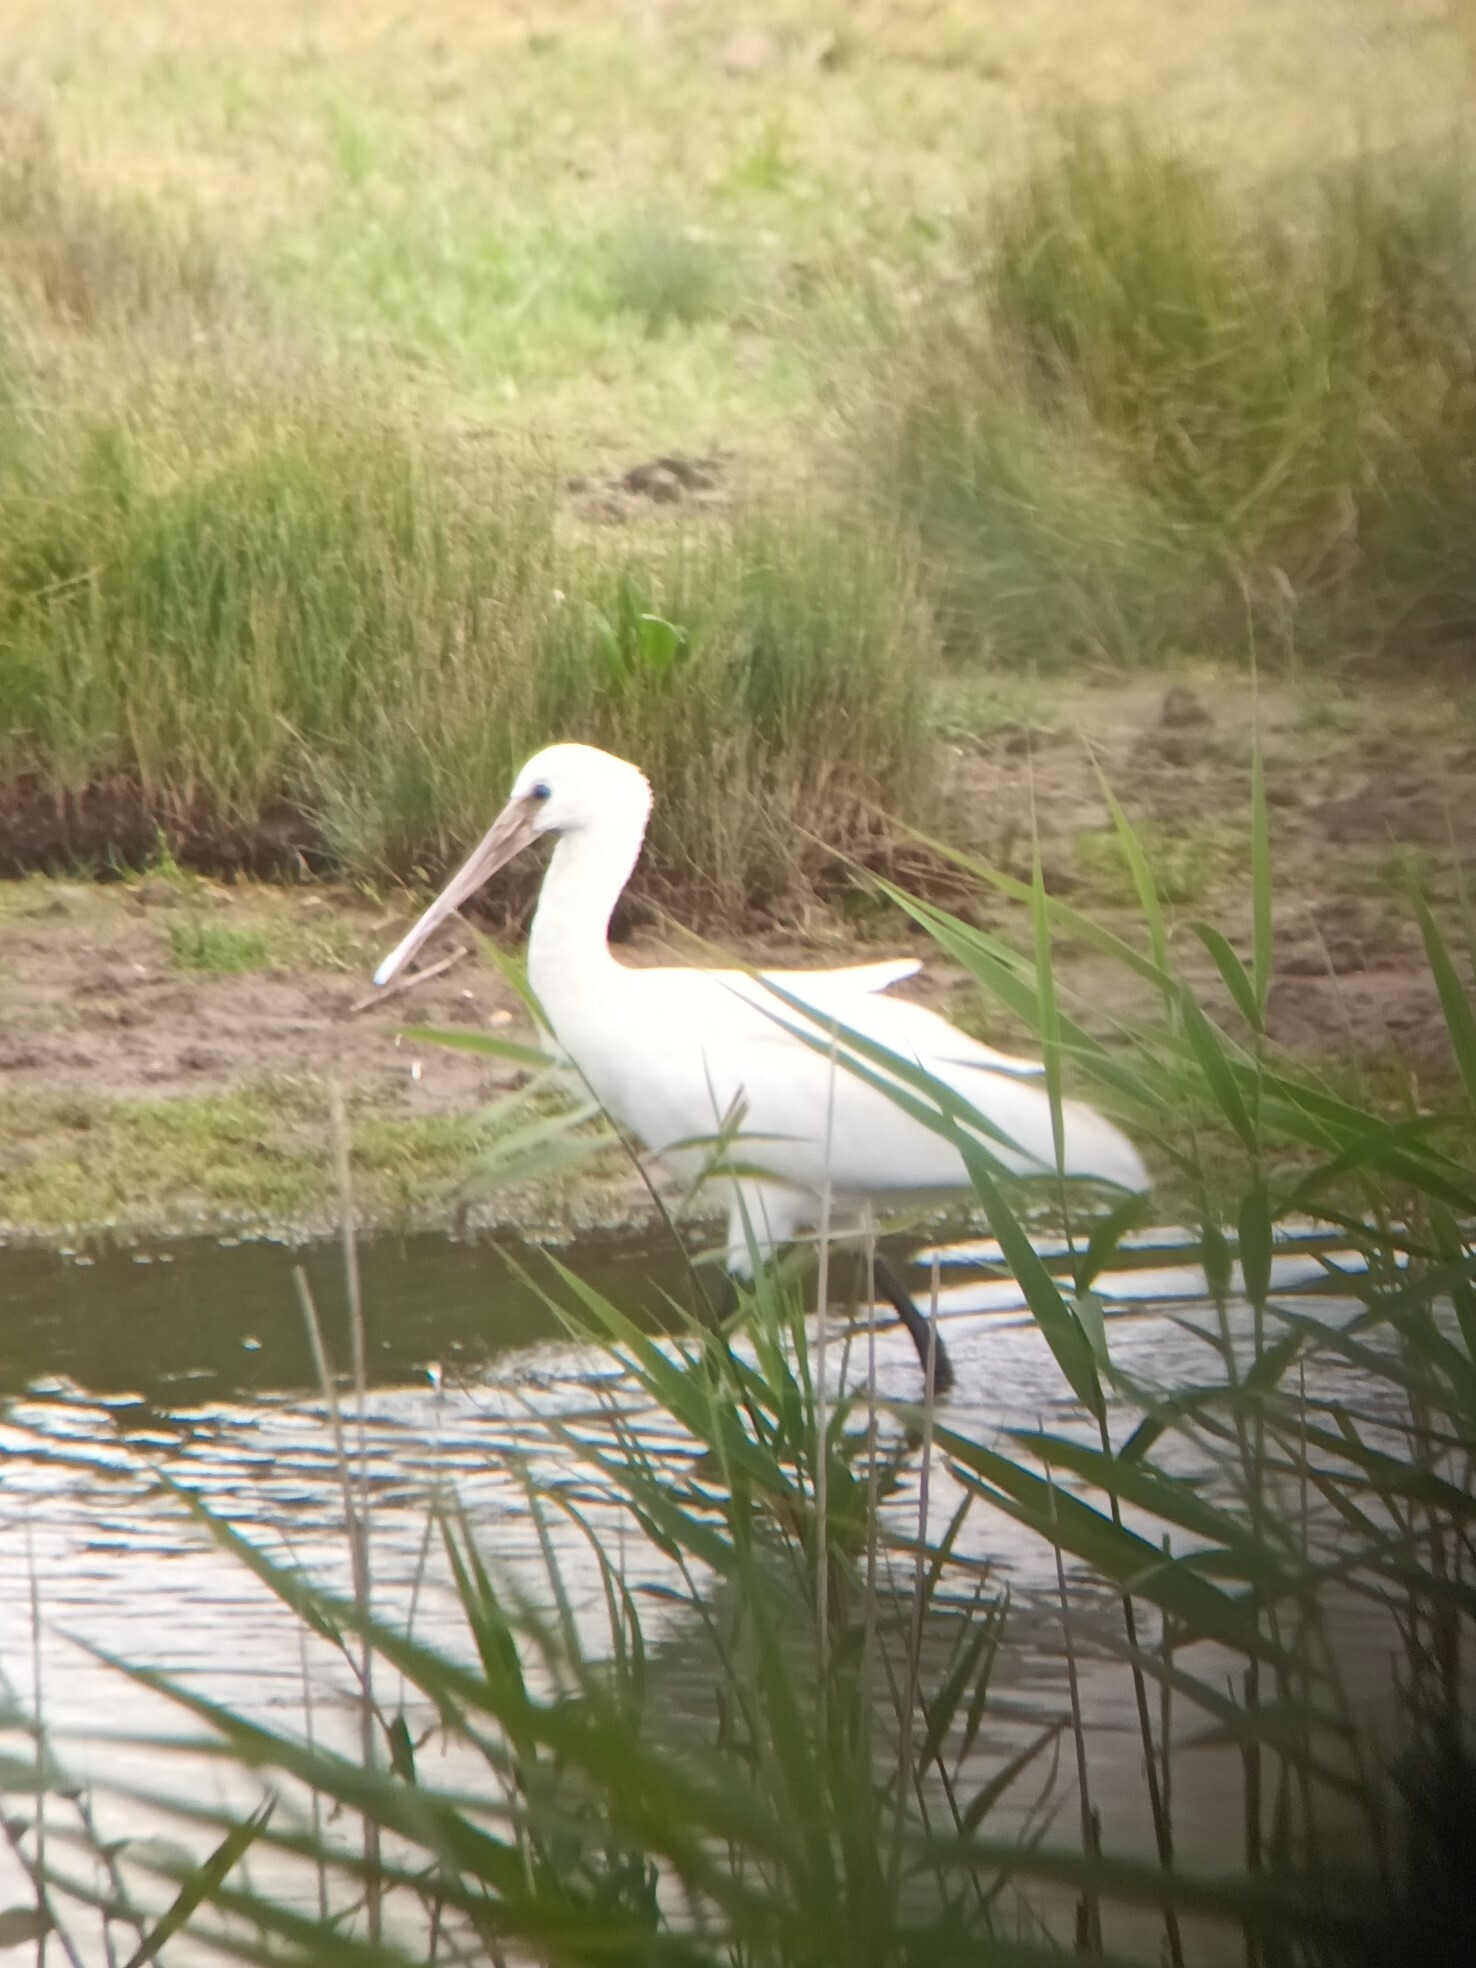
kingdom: Animalia
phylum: Chordata
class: Aves
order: Pelecaniformes
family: Threskiornithidae
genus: Platalea
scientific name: Platalea leucorodia
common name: Eurasian spoonbill
